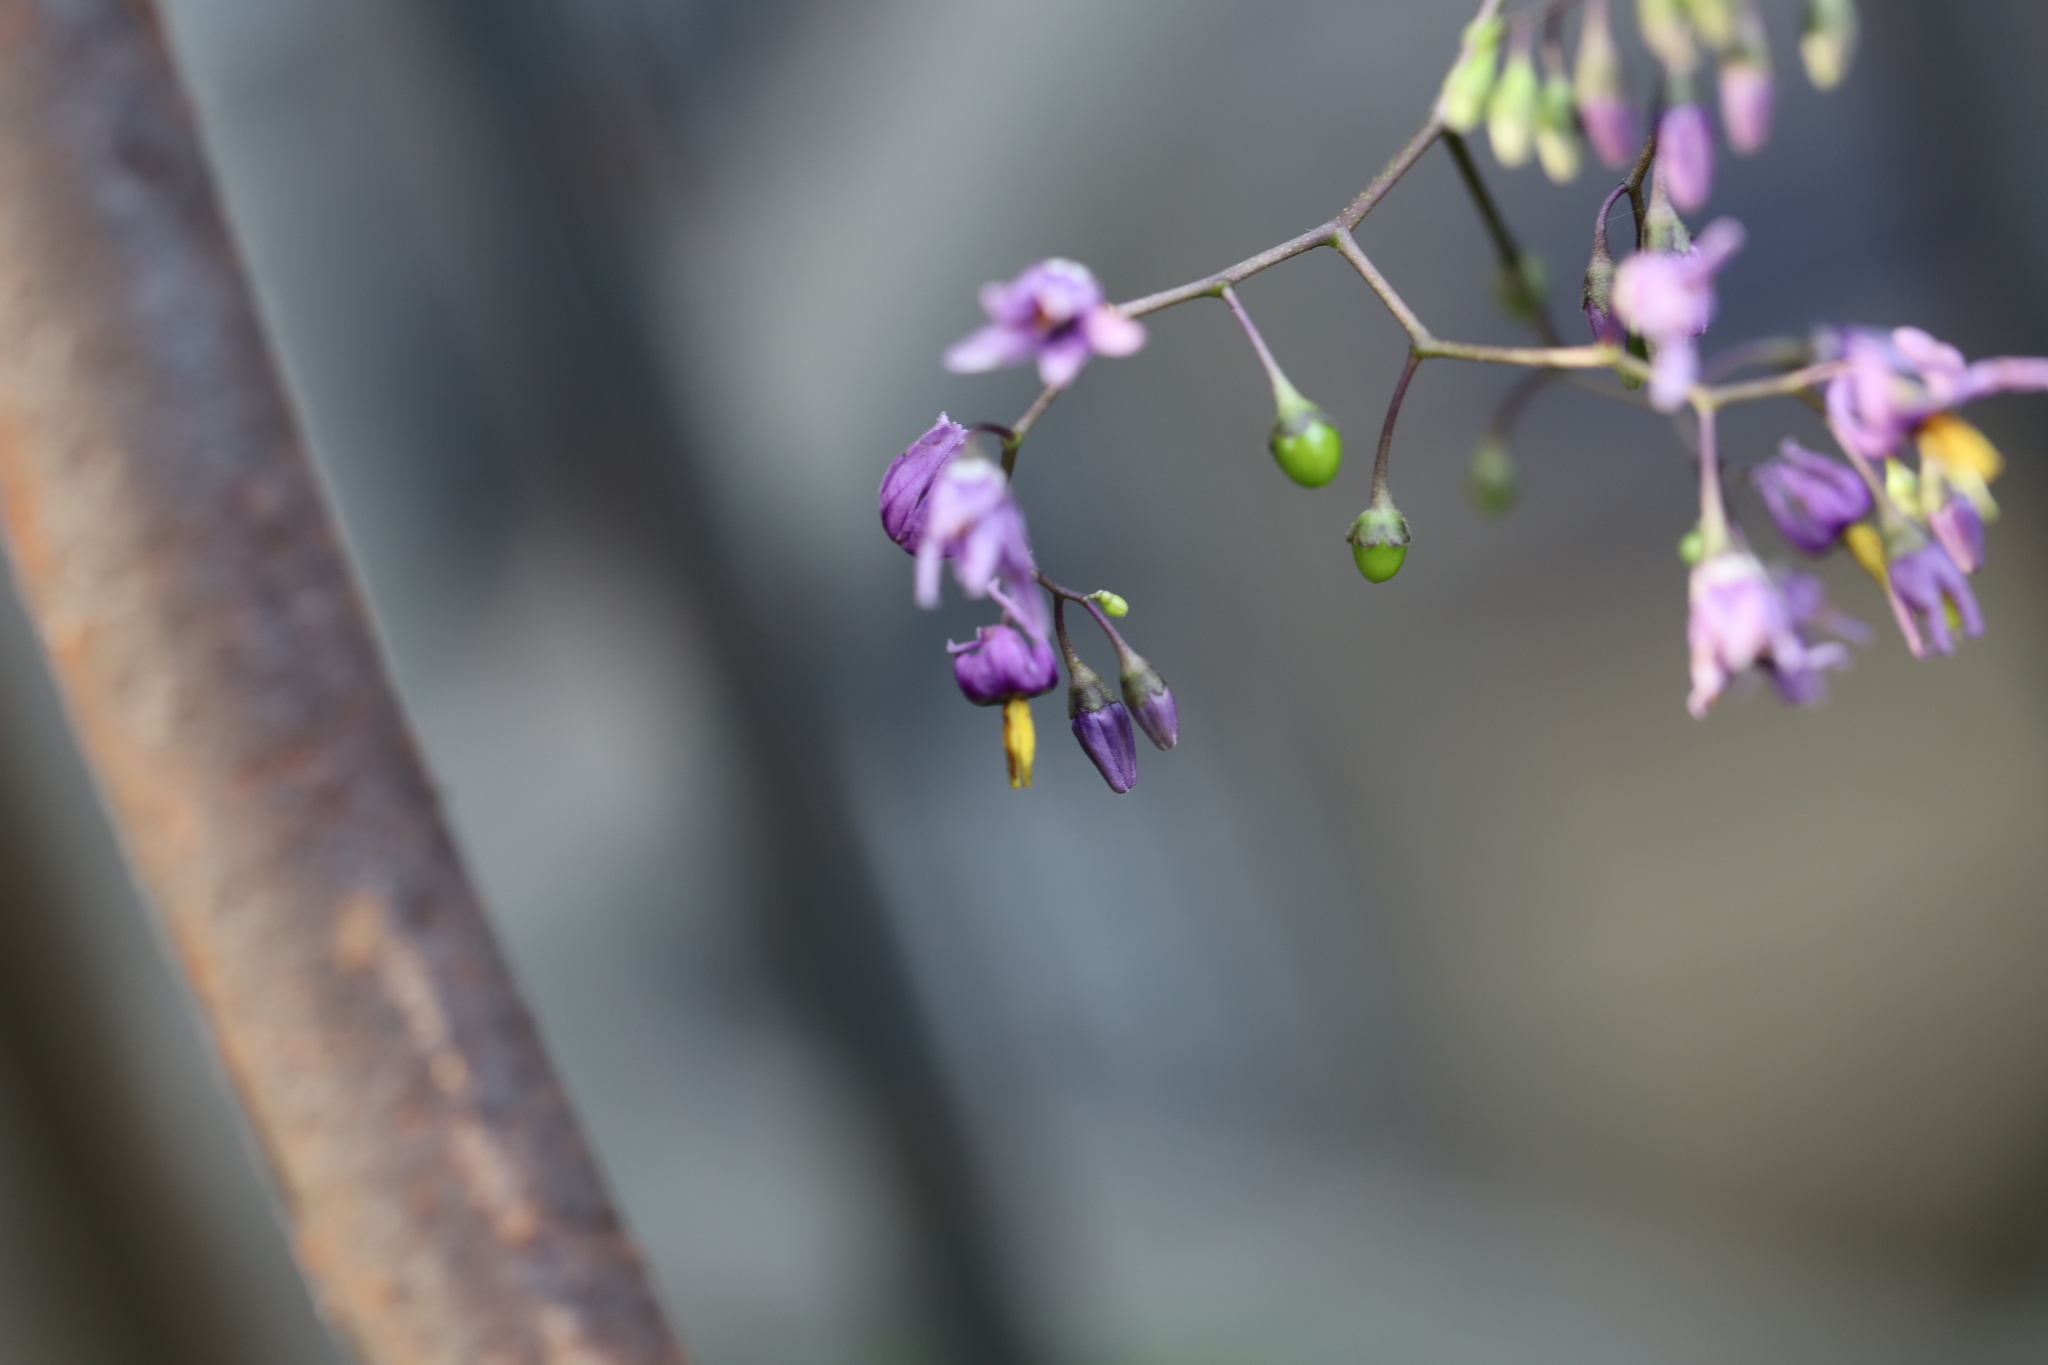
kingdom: Plantae
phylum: Tracheophyta
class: Magnoliopsida
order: Solanales
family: Solanaceae
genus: Solanum
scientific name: Solanum dulcamara
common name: Climbing nightshade
